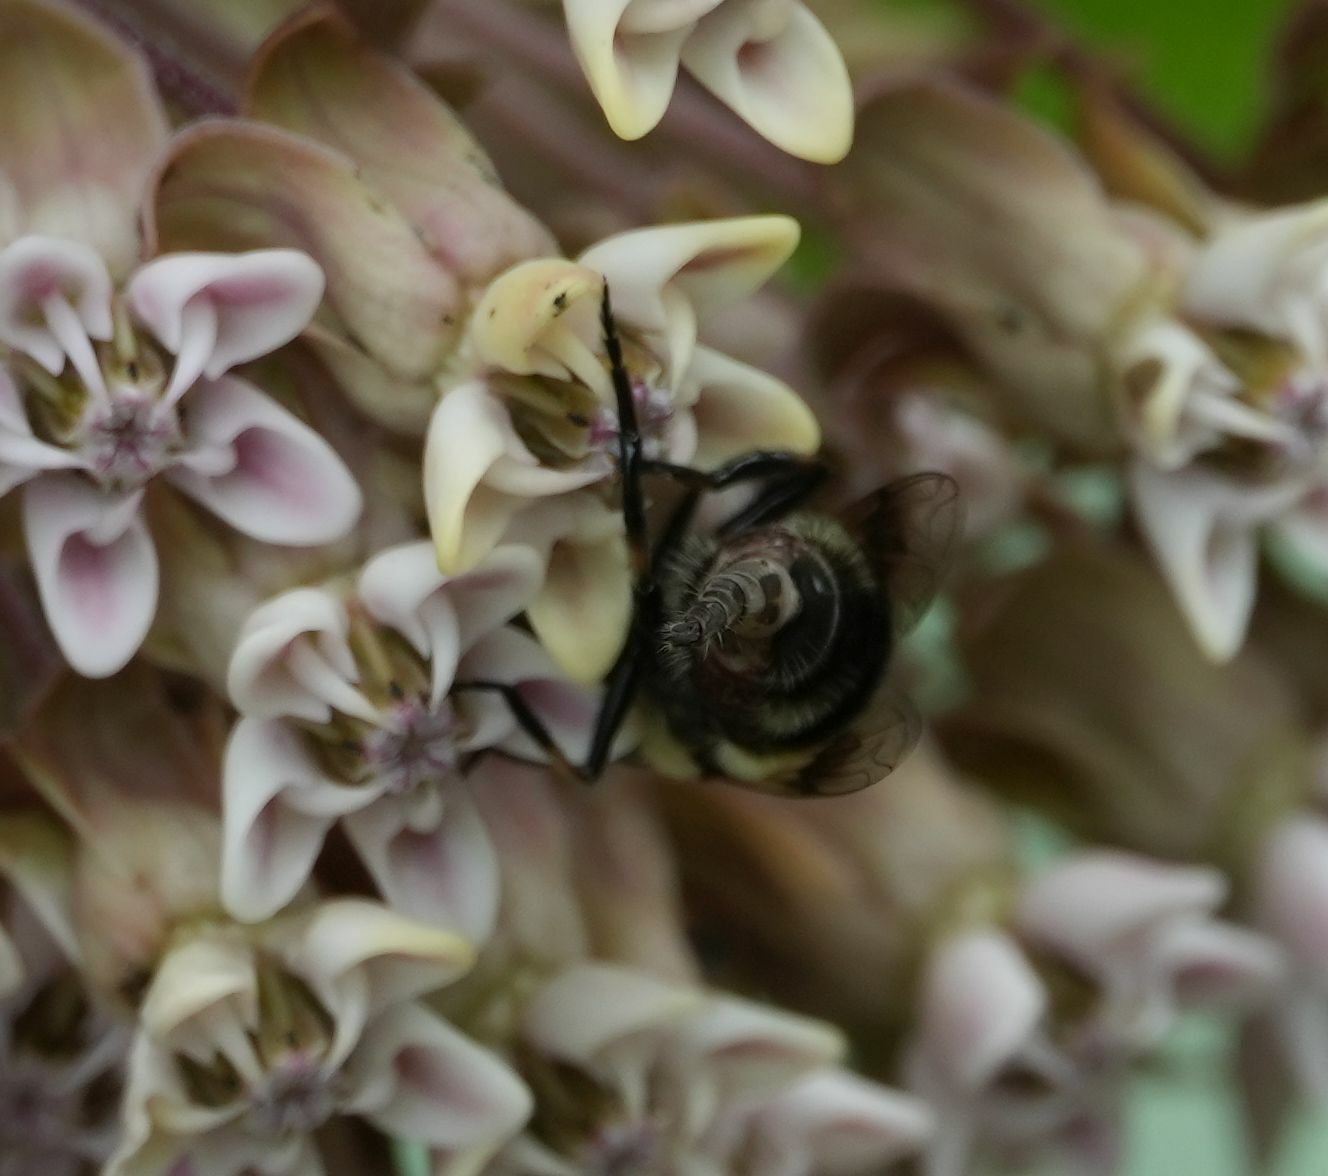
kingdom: Animalia
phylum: Arthropoda
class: Insecta
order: Diptera
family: Syrphidae
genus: Eristalis
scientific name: Eristalis anthophorina
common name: Orange-spotted drone fly
